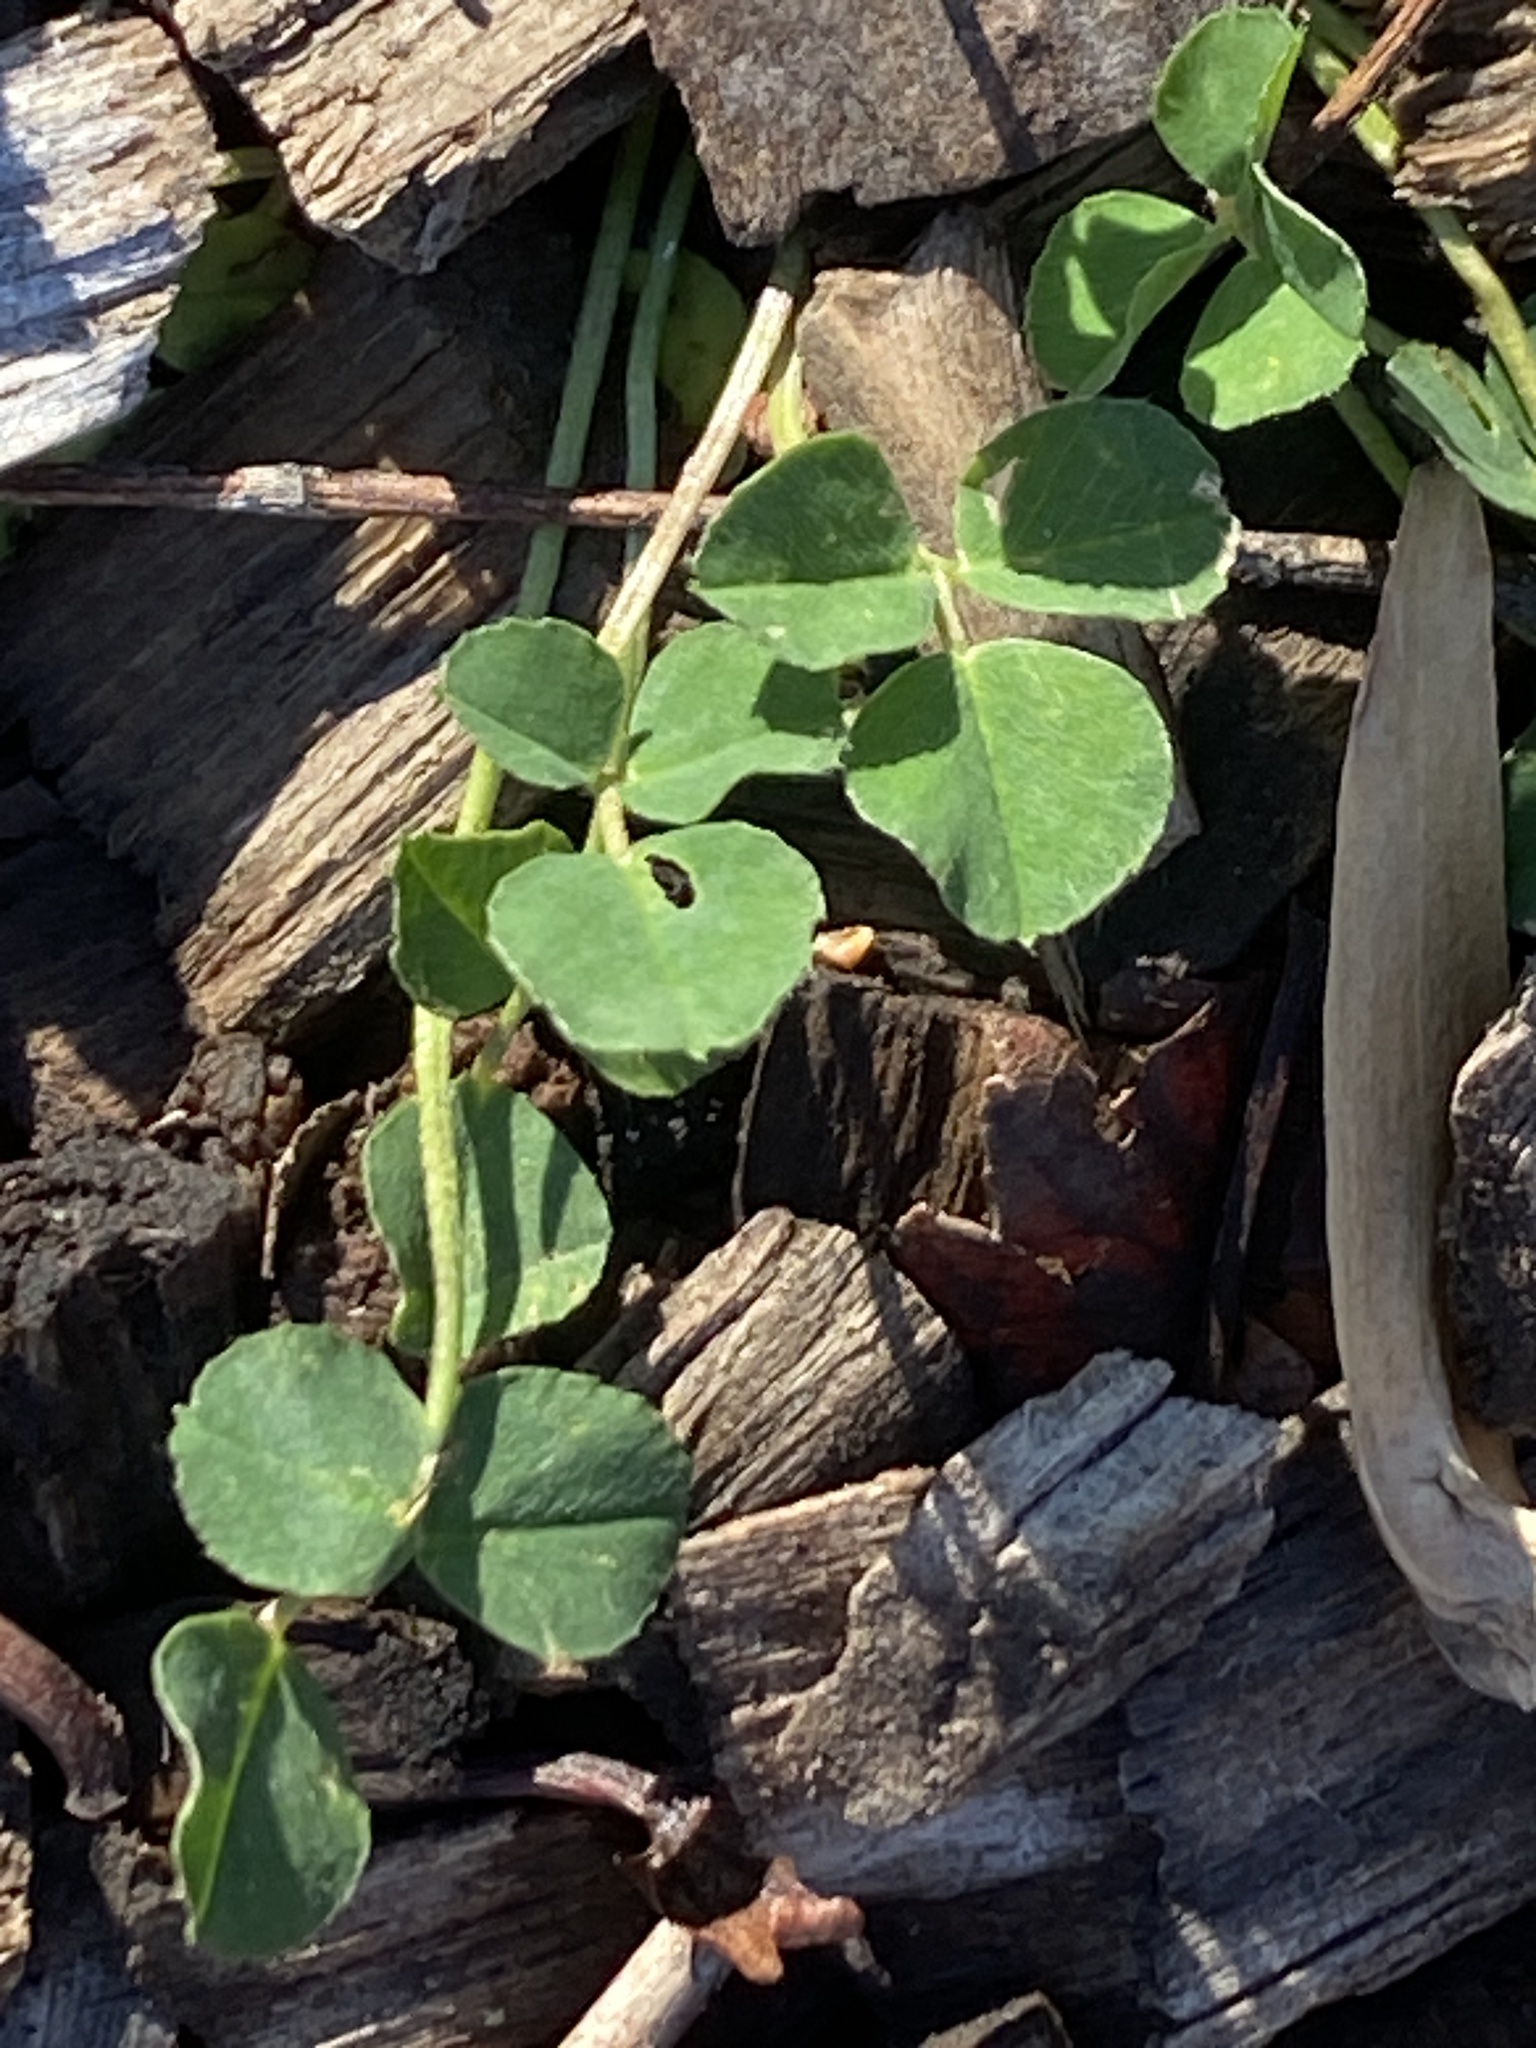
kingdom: Plantae
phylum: Tracheophyta
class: Magnoliopsida
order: Fabales
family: Fabaceae
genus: Medicago
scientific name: Medicago lupulina
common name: Black medick
